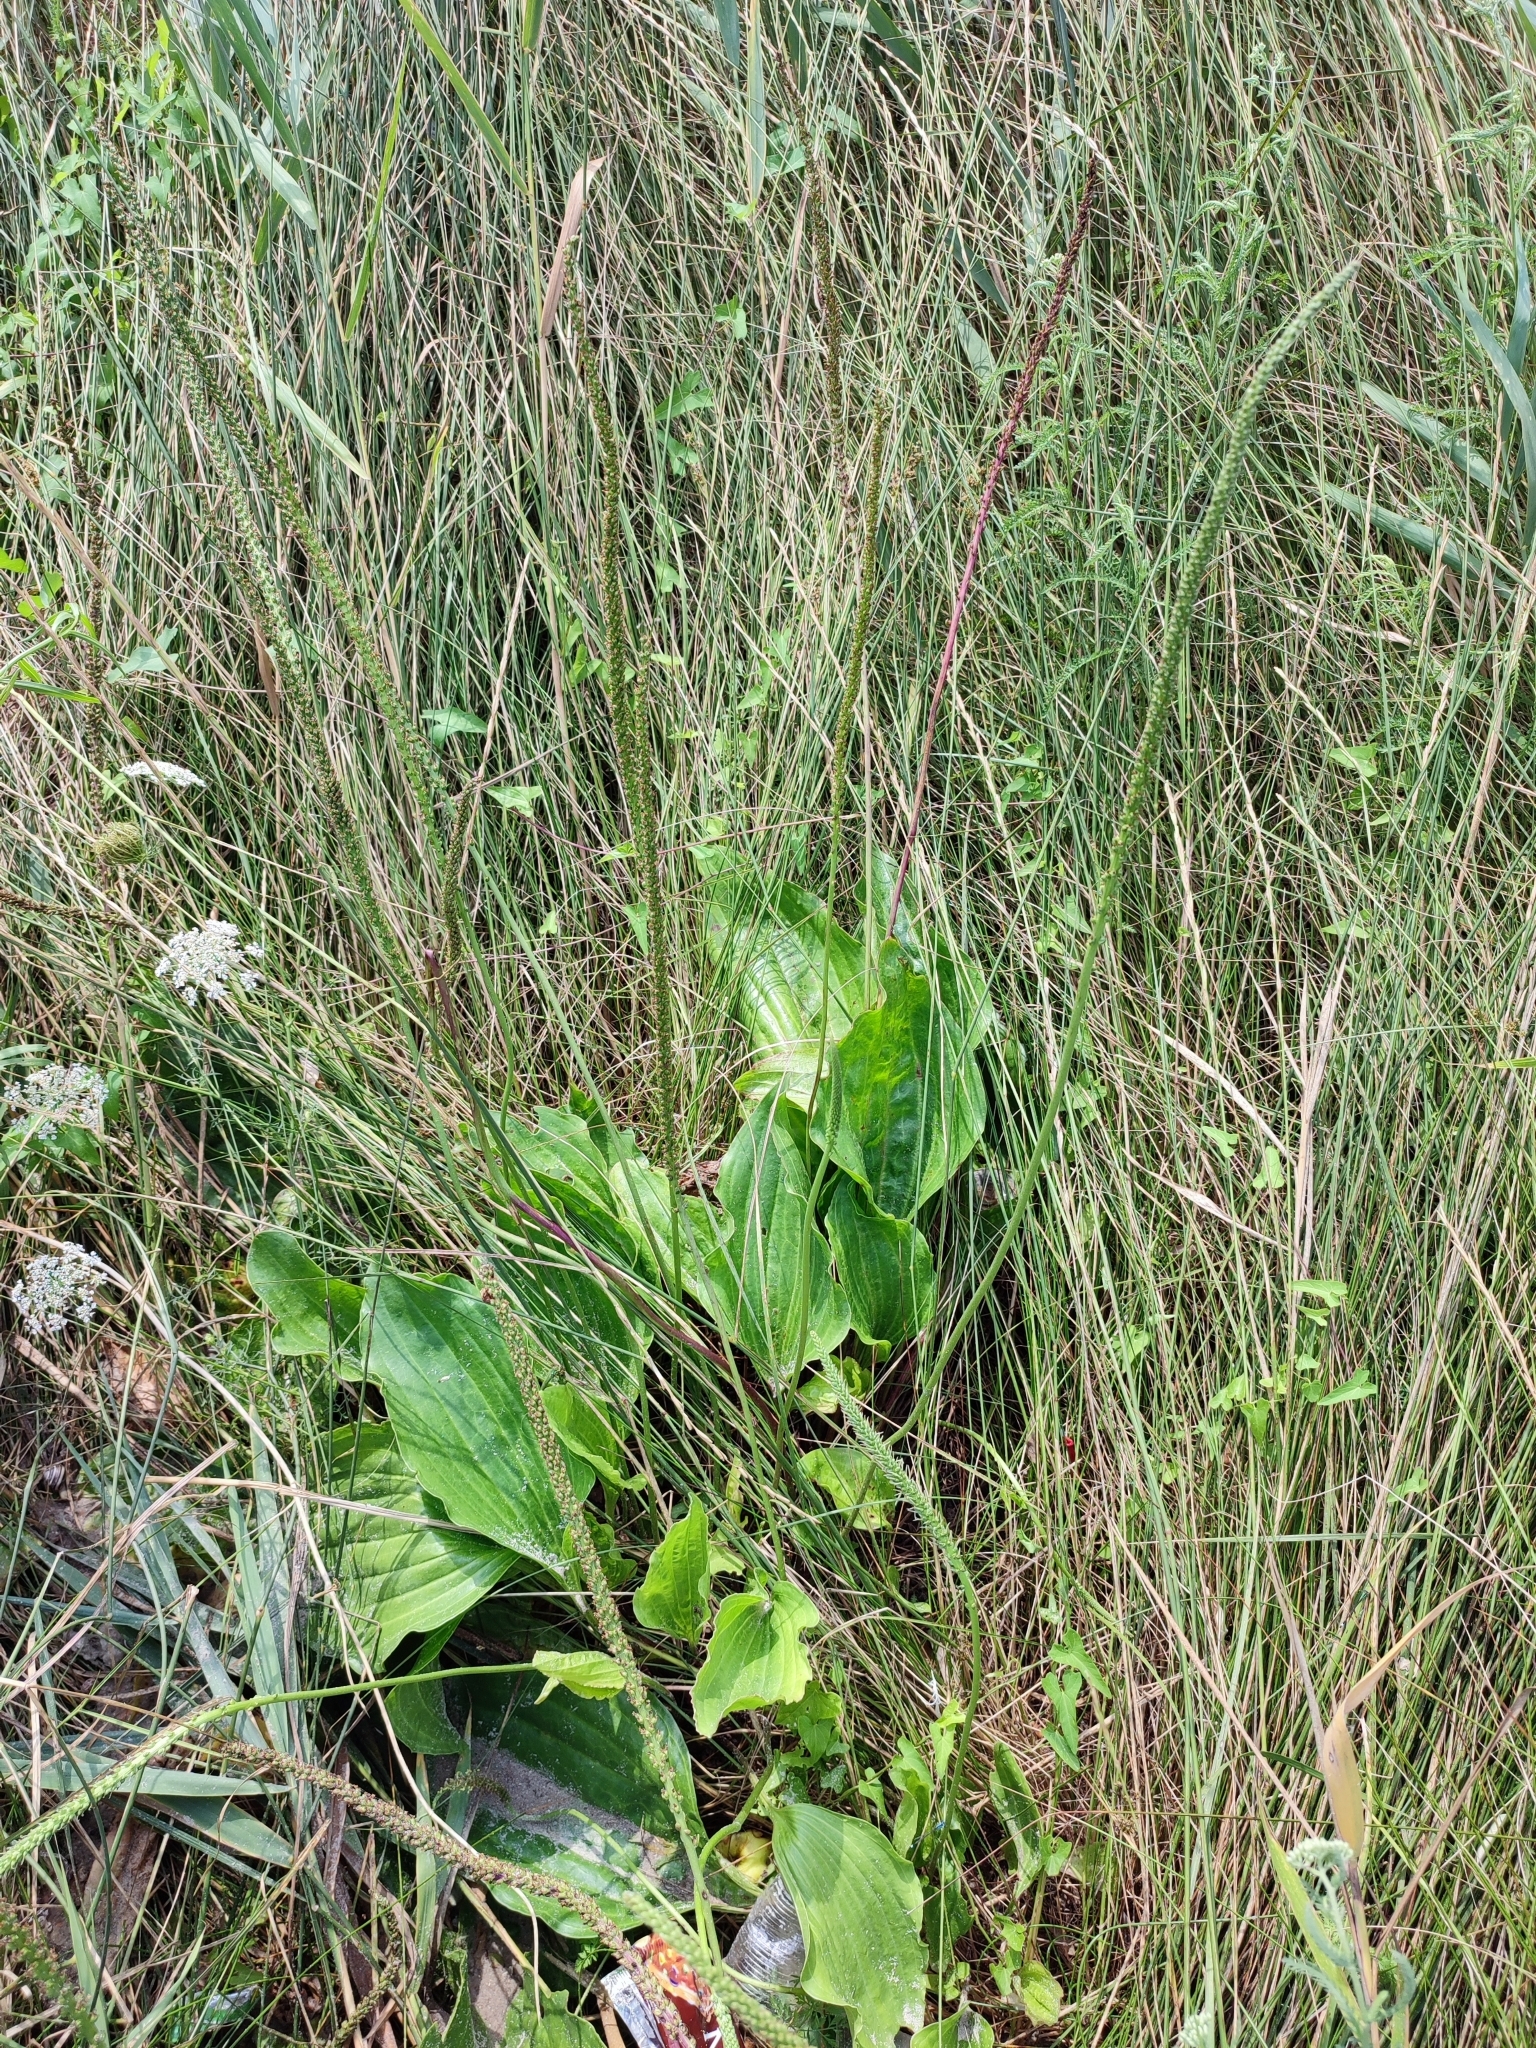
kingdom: Plantae
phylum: Tracheophyta
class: Magnoliopsida
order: Lamiales
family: Plantaginaceae
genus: Plantago
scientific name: Plantago cornuti
